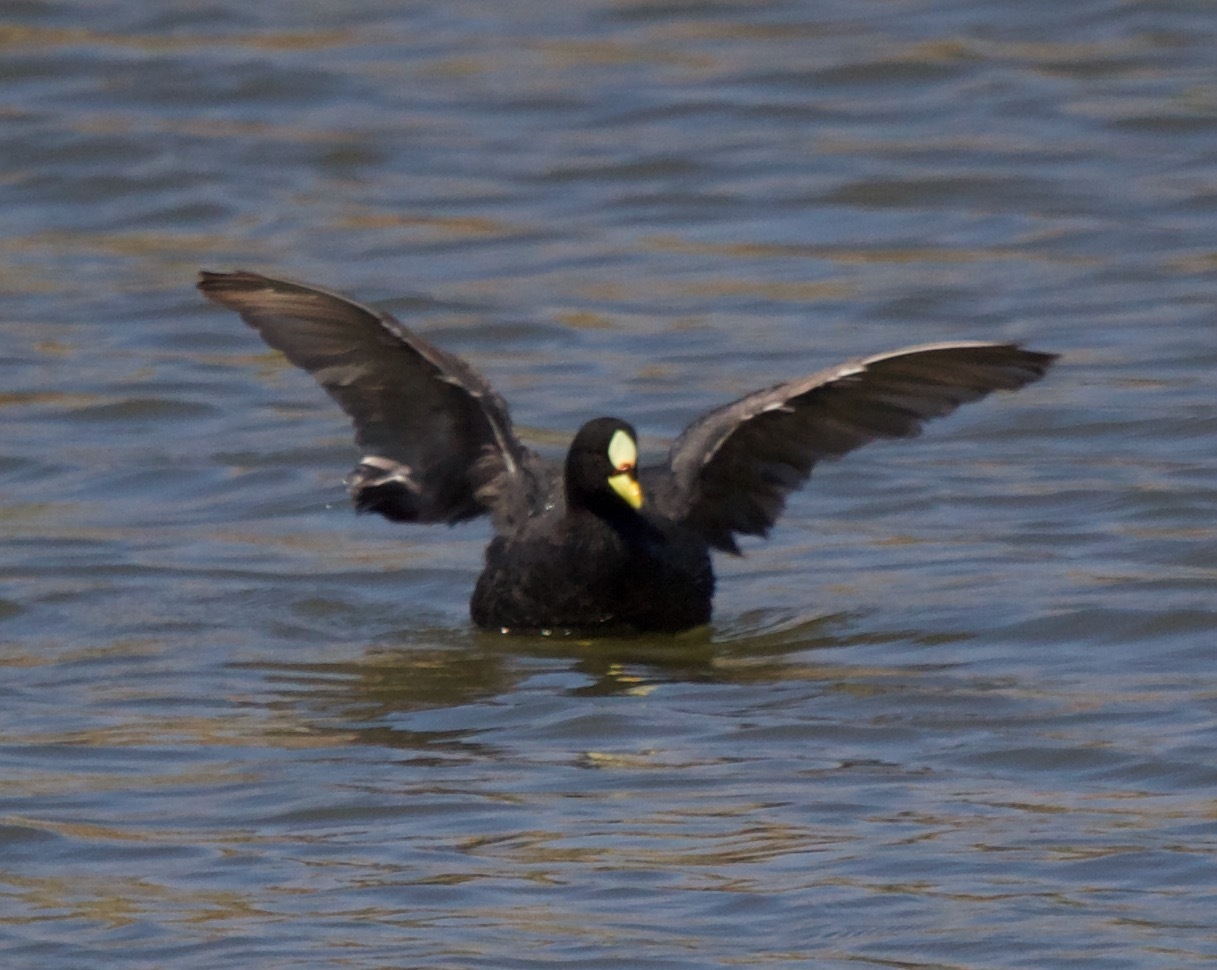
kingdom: Animalia
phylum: Chordata
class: Aves
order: Gruiformes
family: Rallidae
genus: Fulica
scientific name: Fulica armillata
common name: Red-gartered coot
